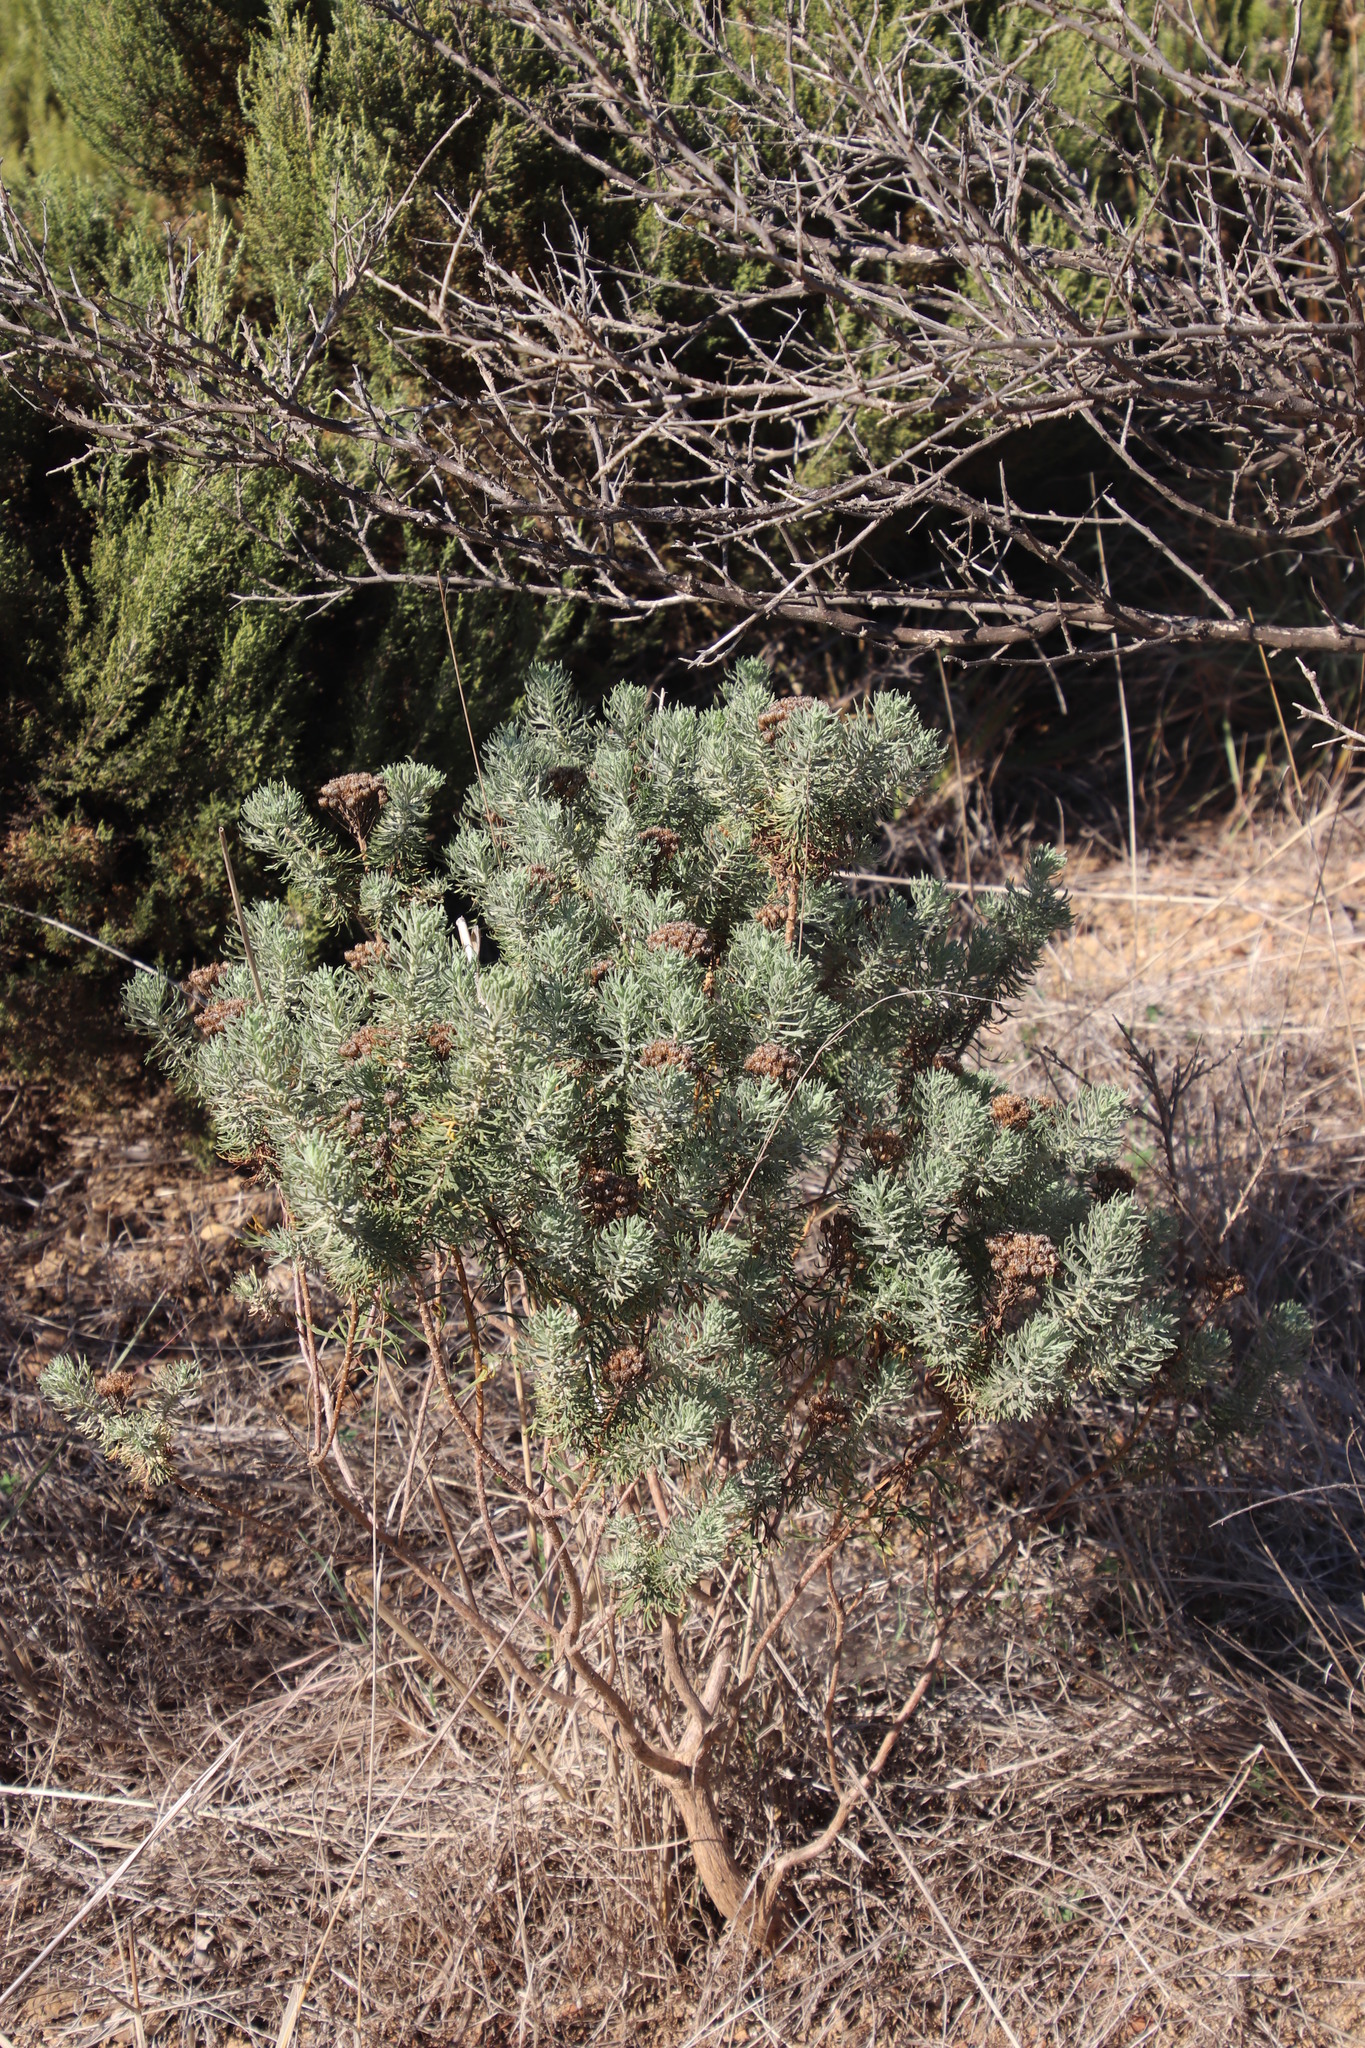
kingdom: Plantae
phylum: Tracheophyta
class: Magnoliopsida
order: Asterales
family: Asteraceae
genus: Athanasia
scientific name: Athanasia trifurcata
